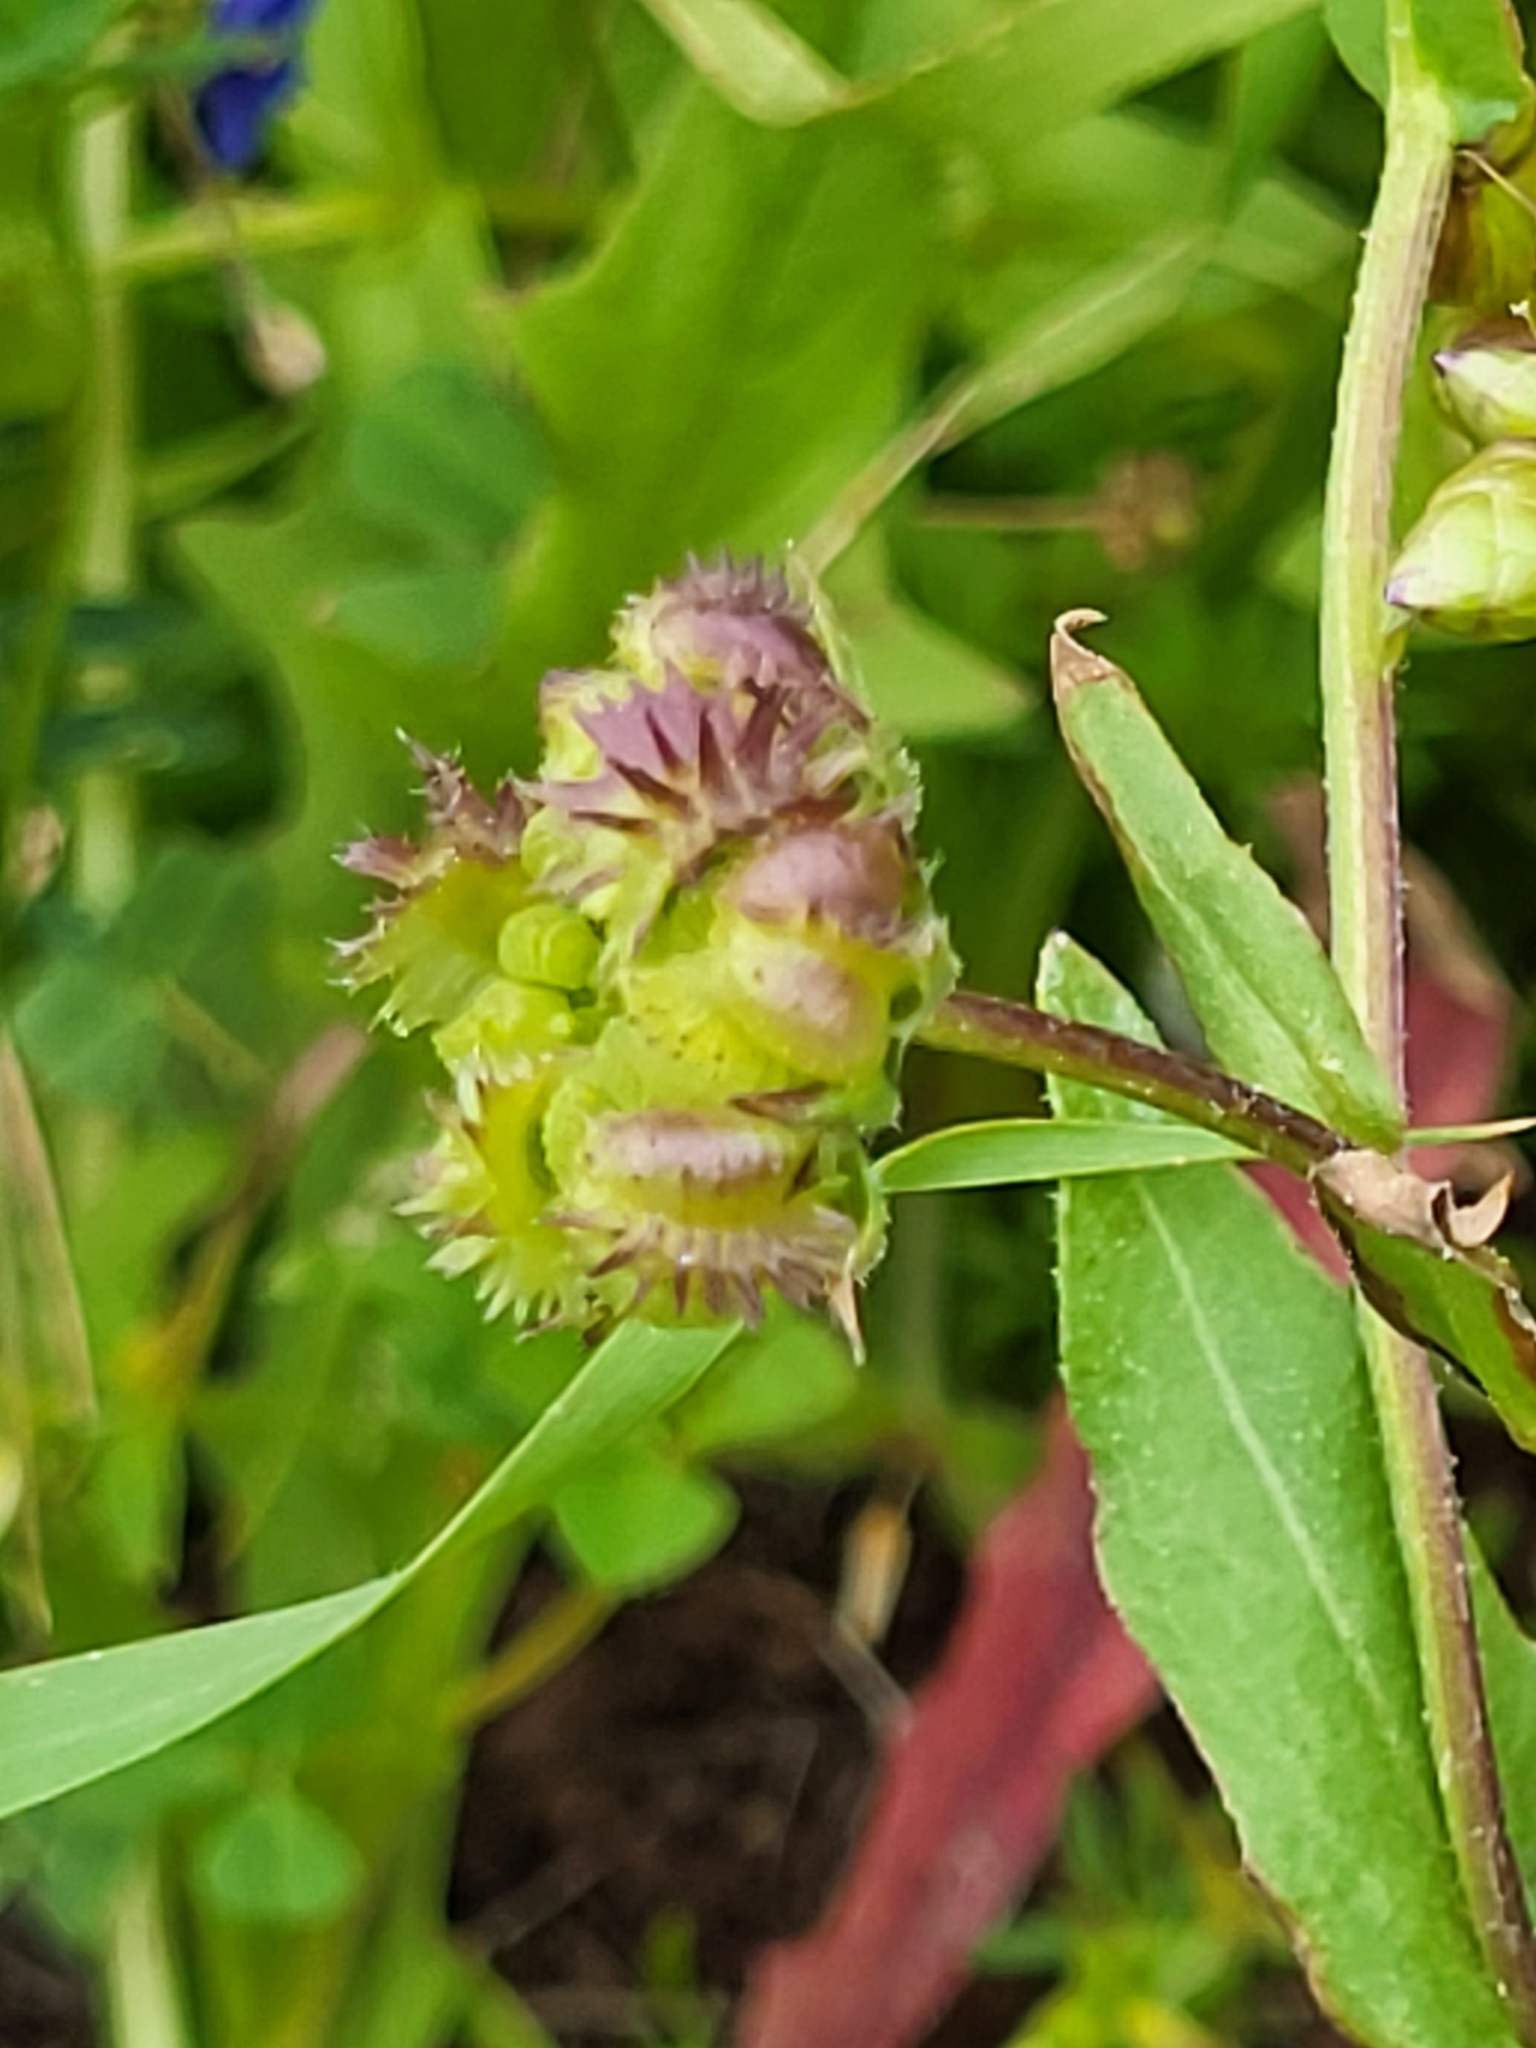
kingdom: Plantae
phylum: Tracheophyta
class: Magnoliopsida
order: Asterales
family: Asteraceae
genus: Calendula
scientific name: Calendula arvensis
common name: Field marigold
